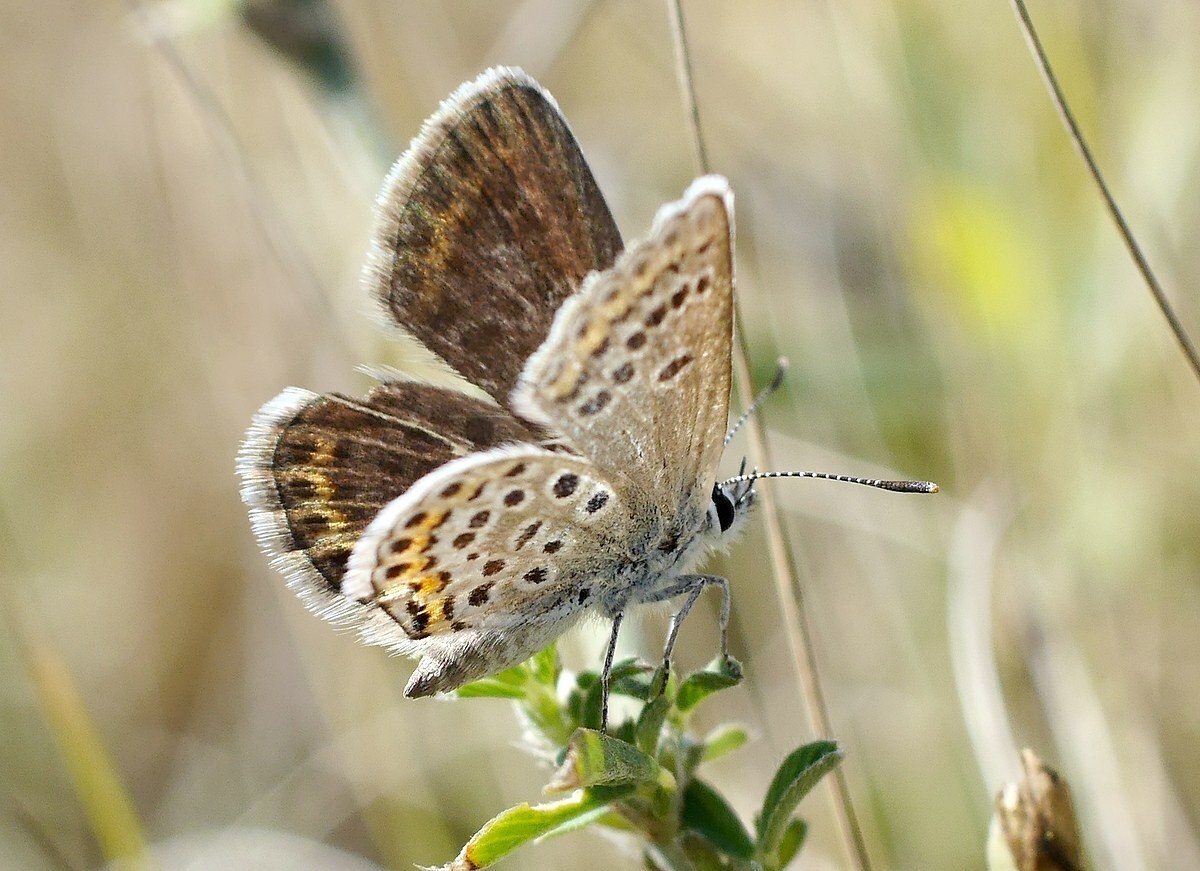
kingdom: Animalia
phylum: Arthropoda
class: Insecta
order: Lepidoptera
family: Lycaenidae
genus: Plebejus
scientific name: Plebejus argus
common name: Silver-studded blue
